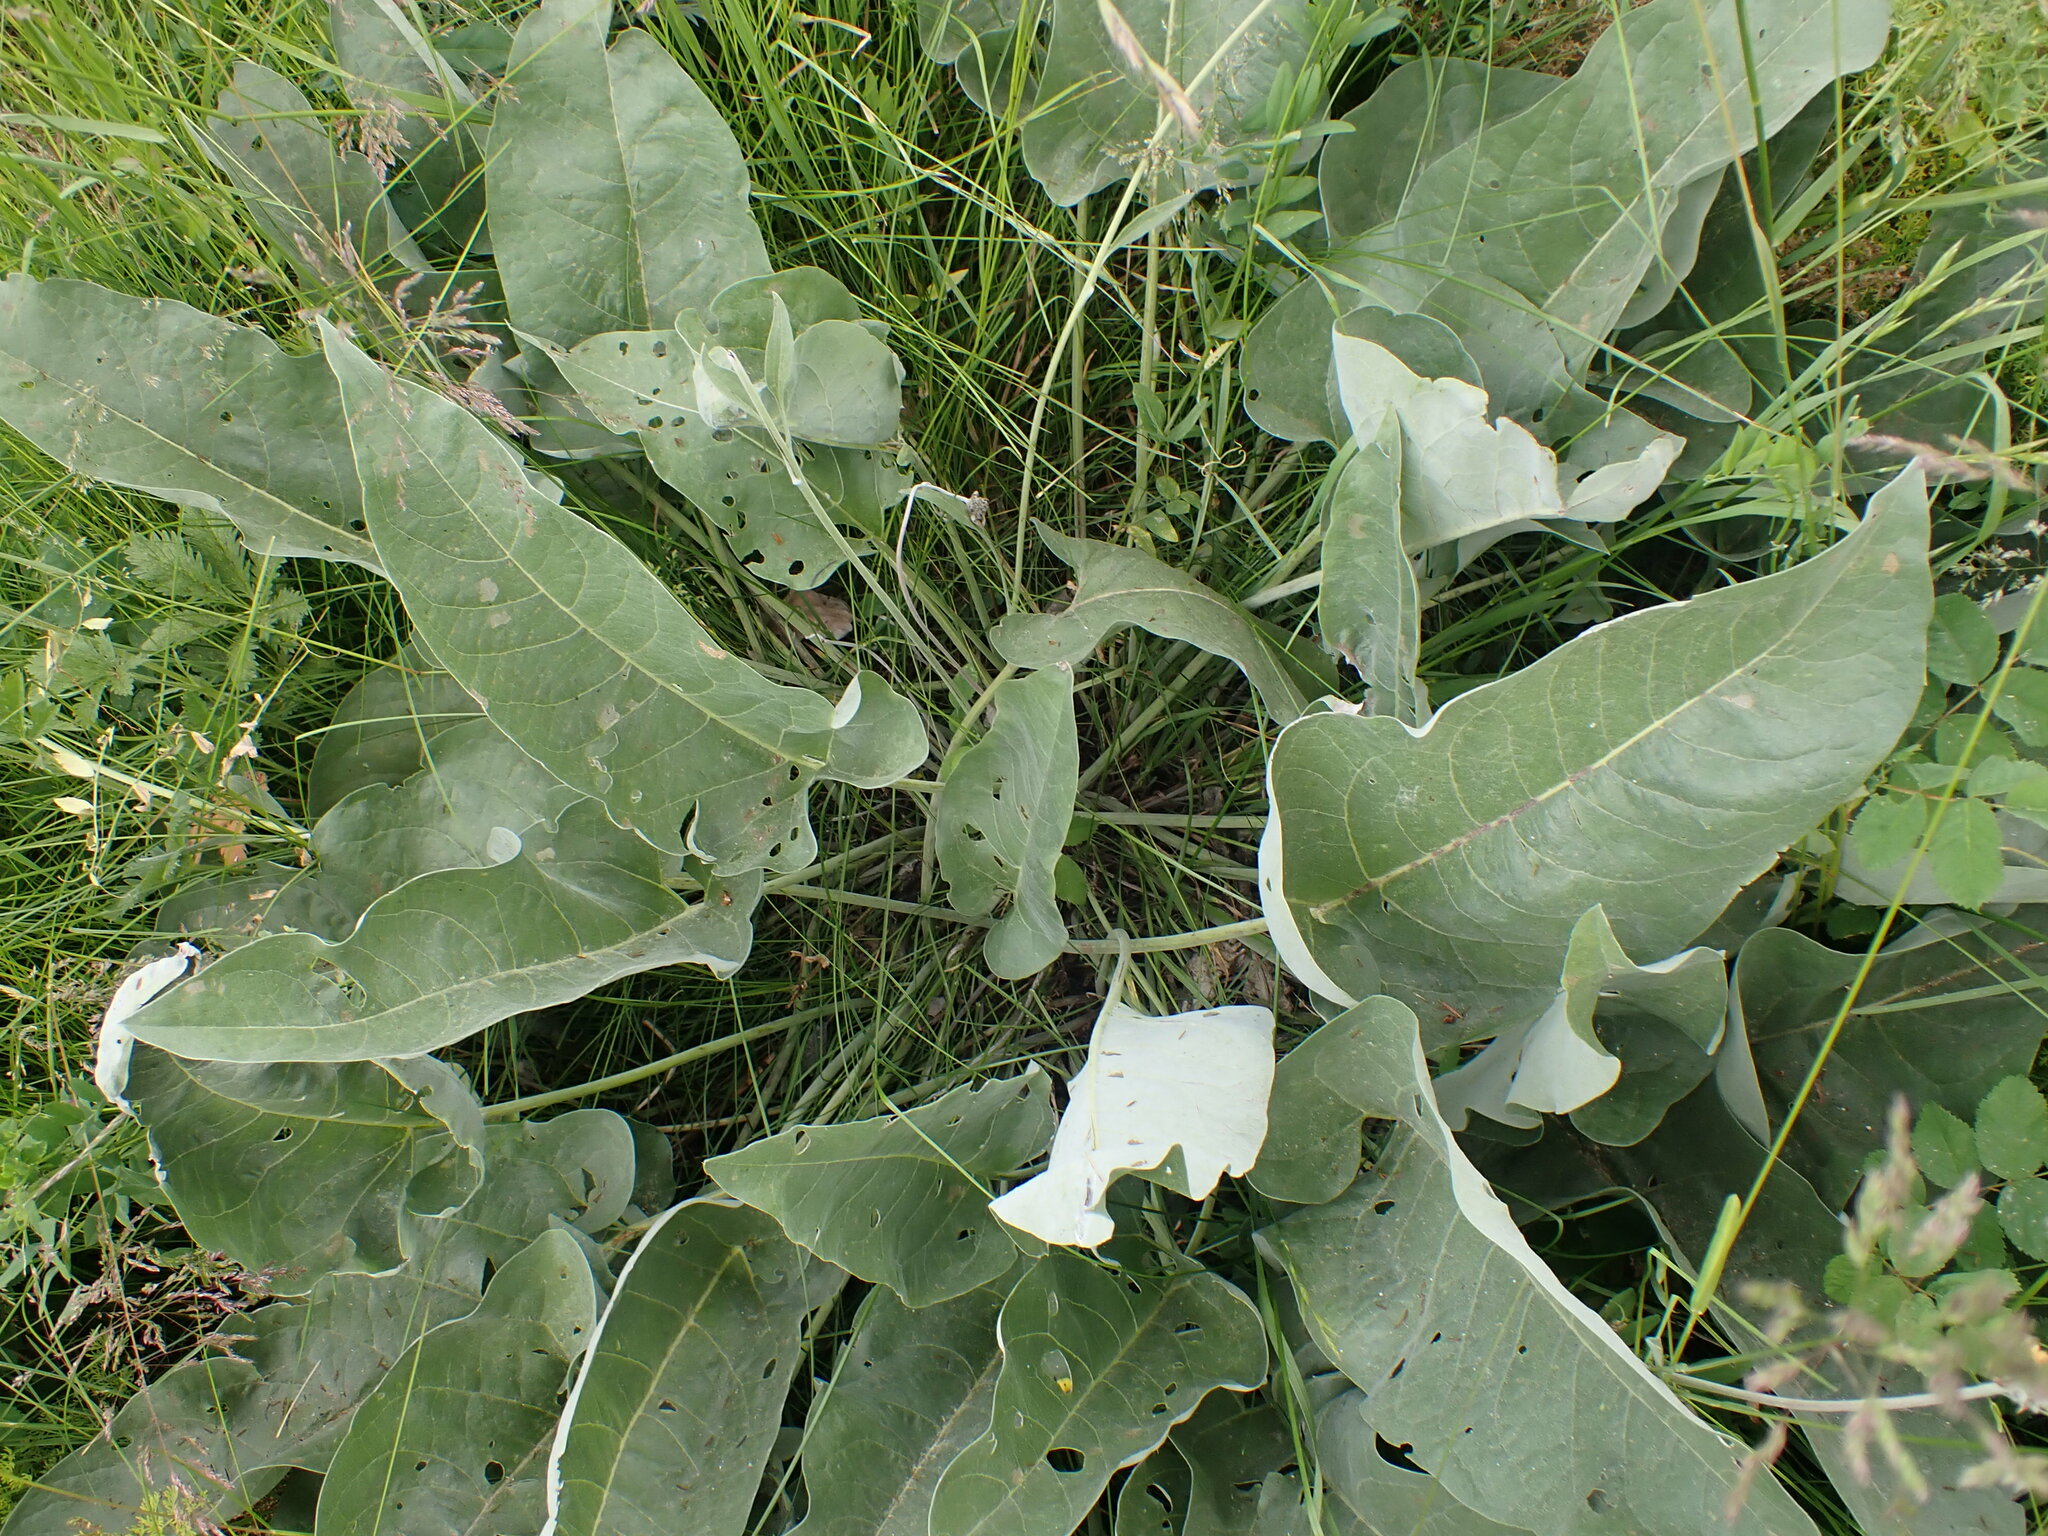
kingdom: Plantae
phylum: Tracheophyta
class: Magnoliopsida
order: Asterales
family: Asteraceae
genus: Wyethia
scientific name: Wyethia sagittata
